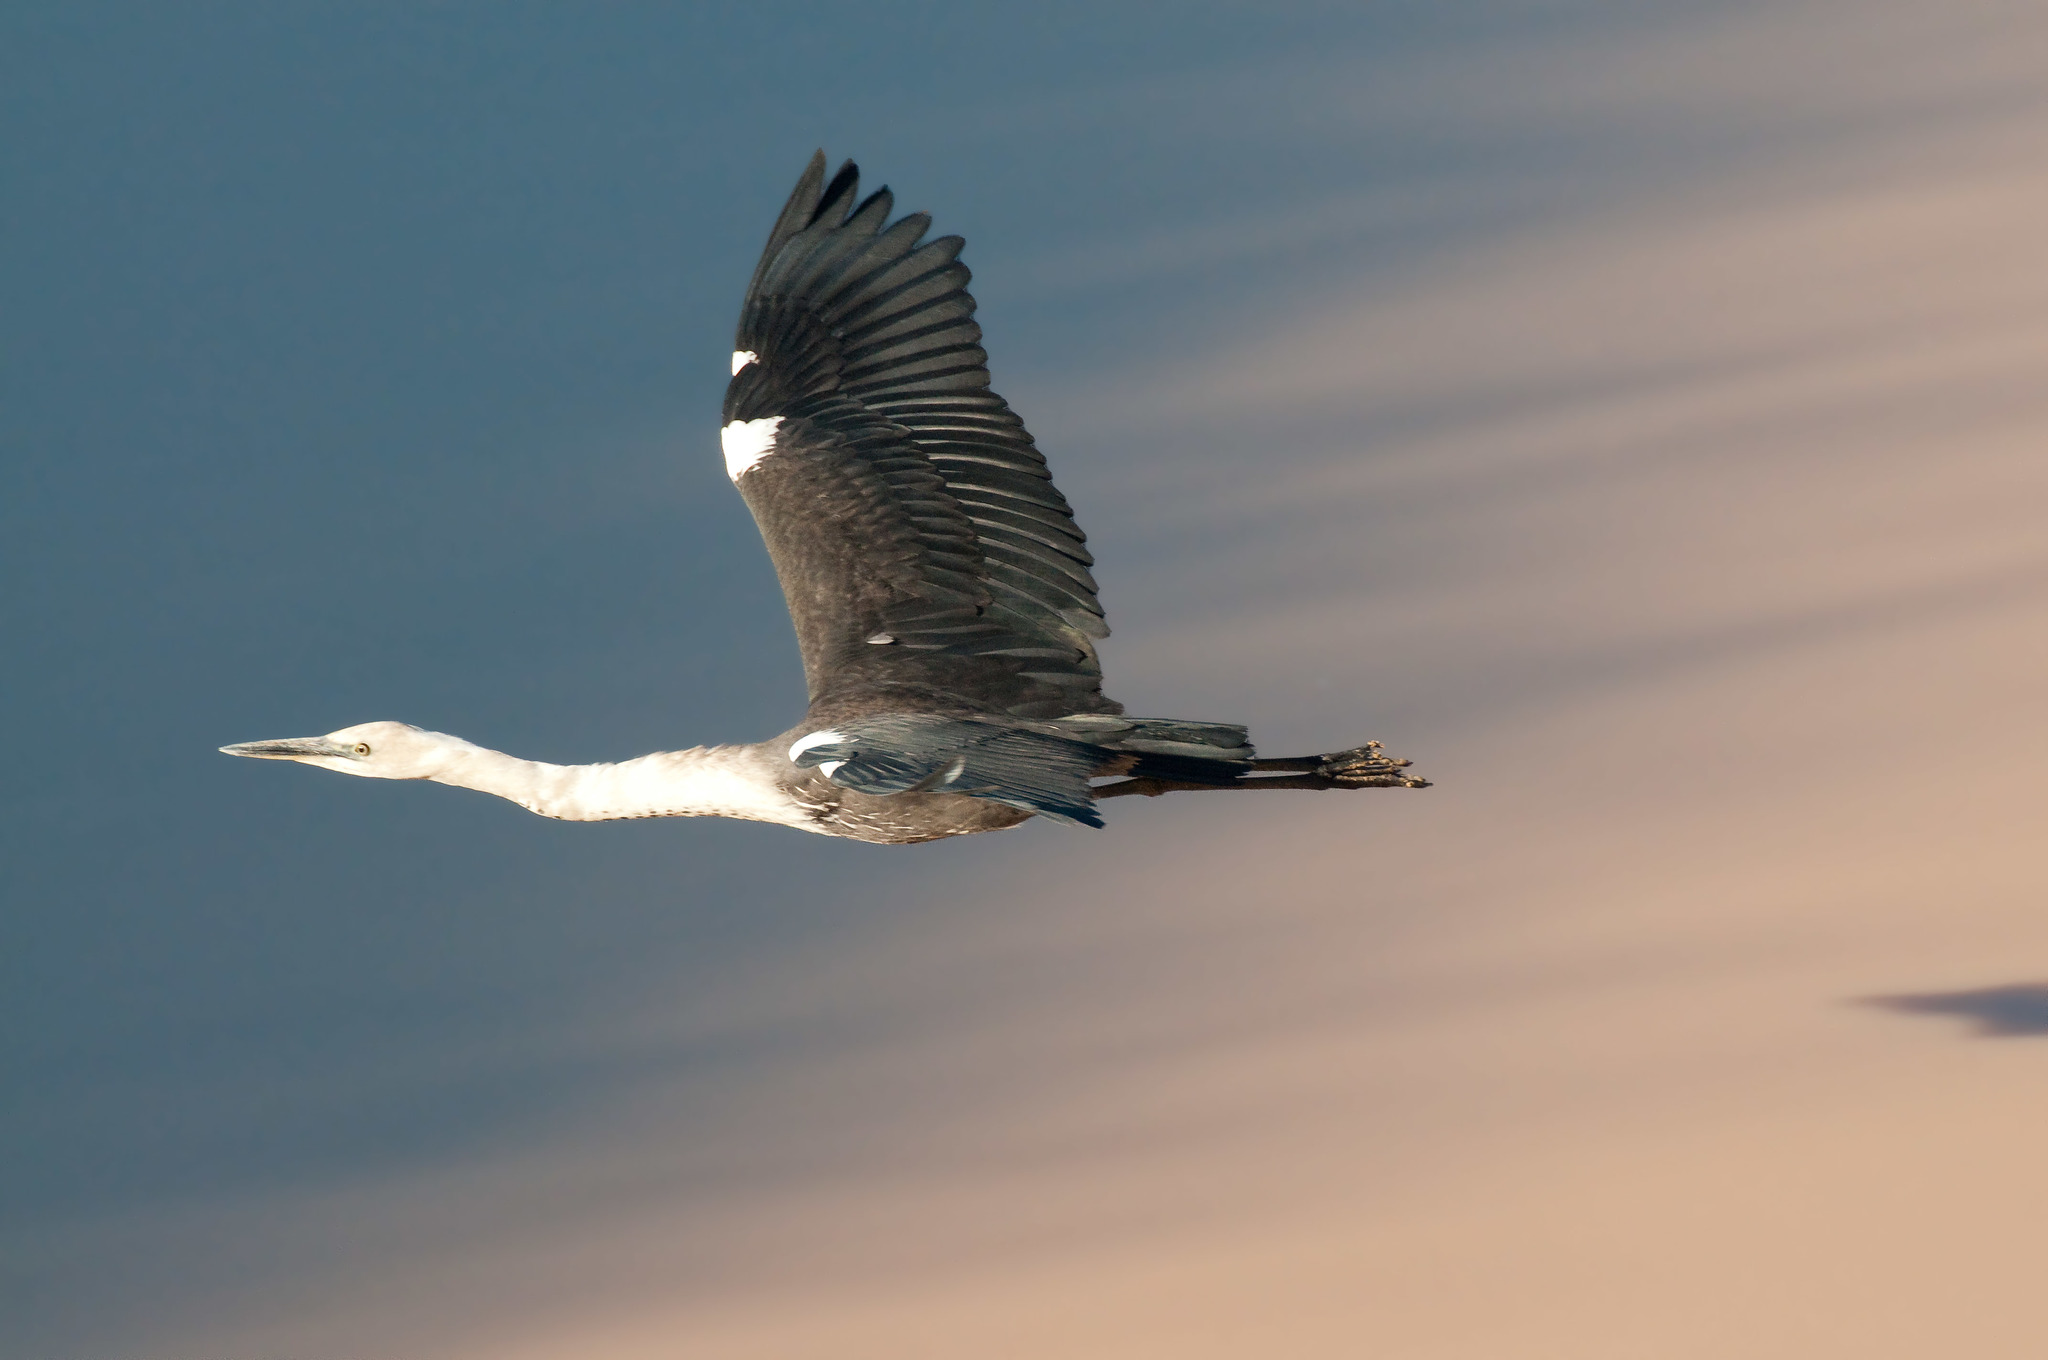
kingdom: Animalia
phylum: Chordata
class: Aves
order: Pelecaniformes
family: Ardeidae
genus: Ardea
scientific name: Ardea pacifica
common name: White-necked heron
